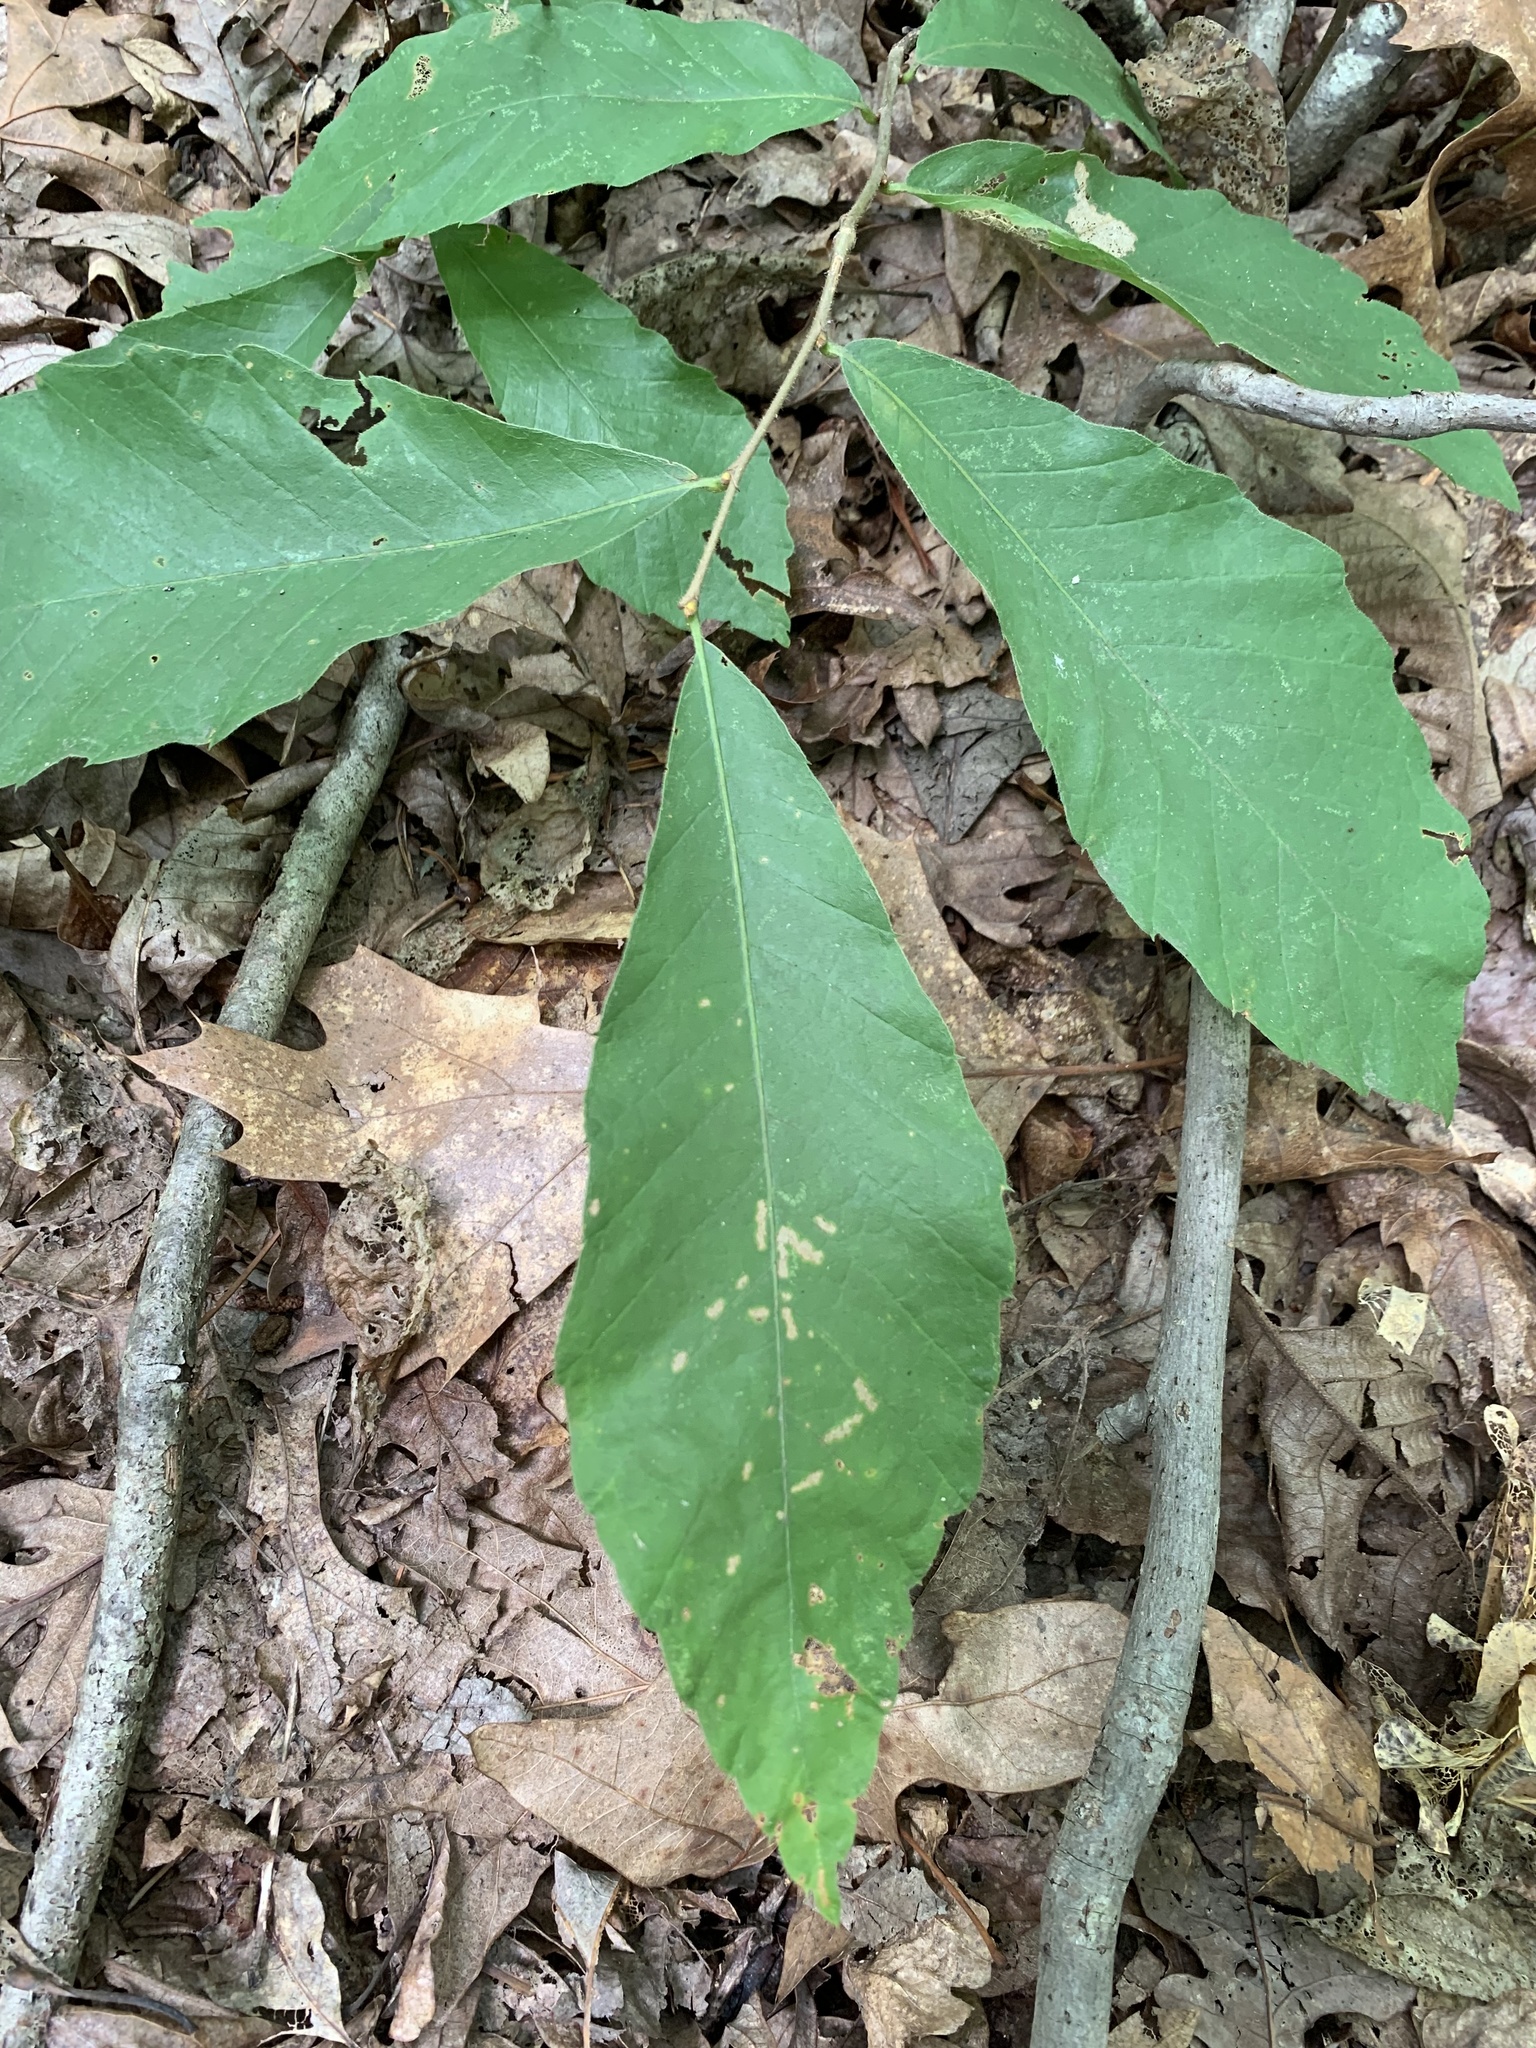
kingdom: Plantae
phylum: Tracheophyta
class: Magnoliopsida
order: Fagales
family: Fagaceae
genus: Castanea
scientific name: Castanea pumila
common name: Chinkapin
